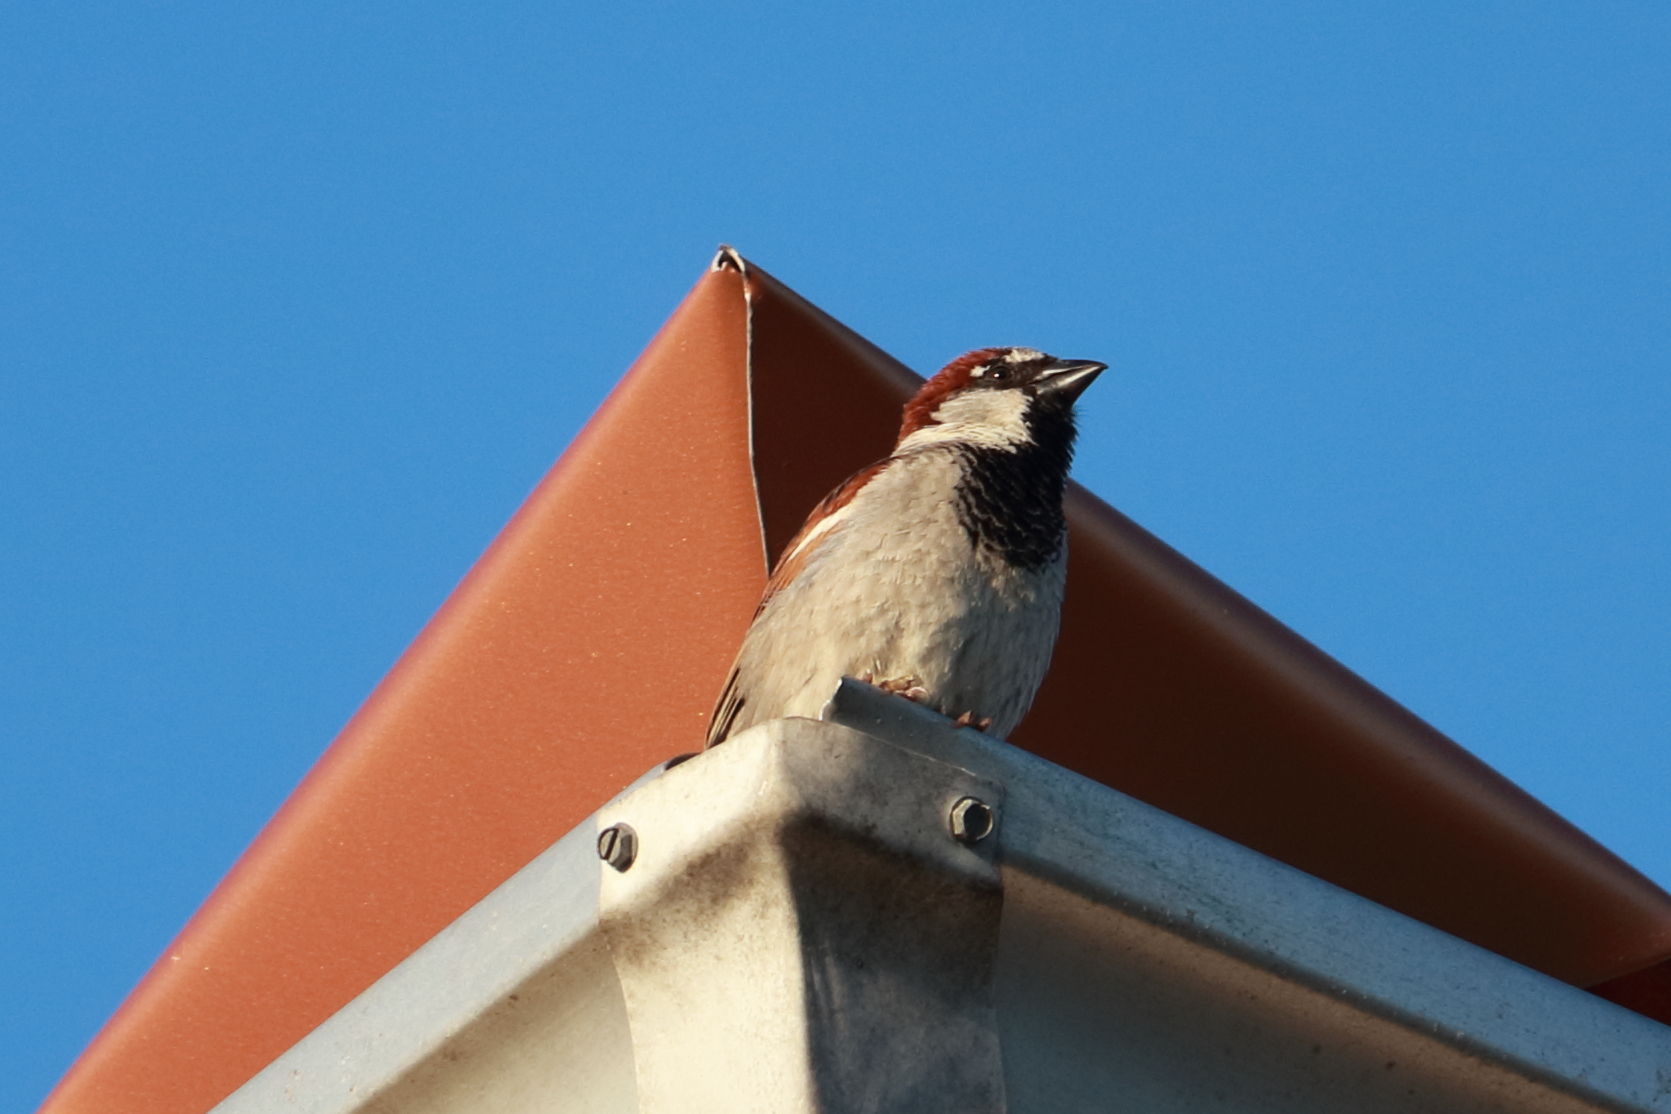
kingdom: Animalia
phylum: Chordata
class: Aves
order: Passeriformes
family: Passeridae
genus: Passer
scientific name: Passer domesticus
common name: House sparrow
